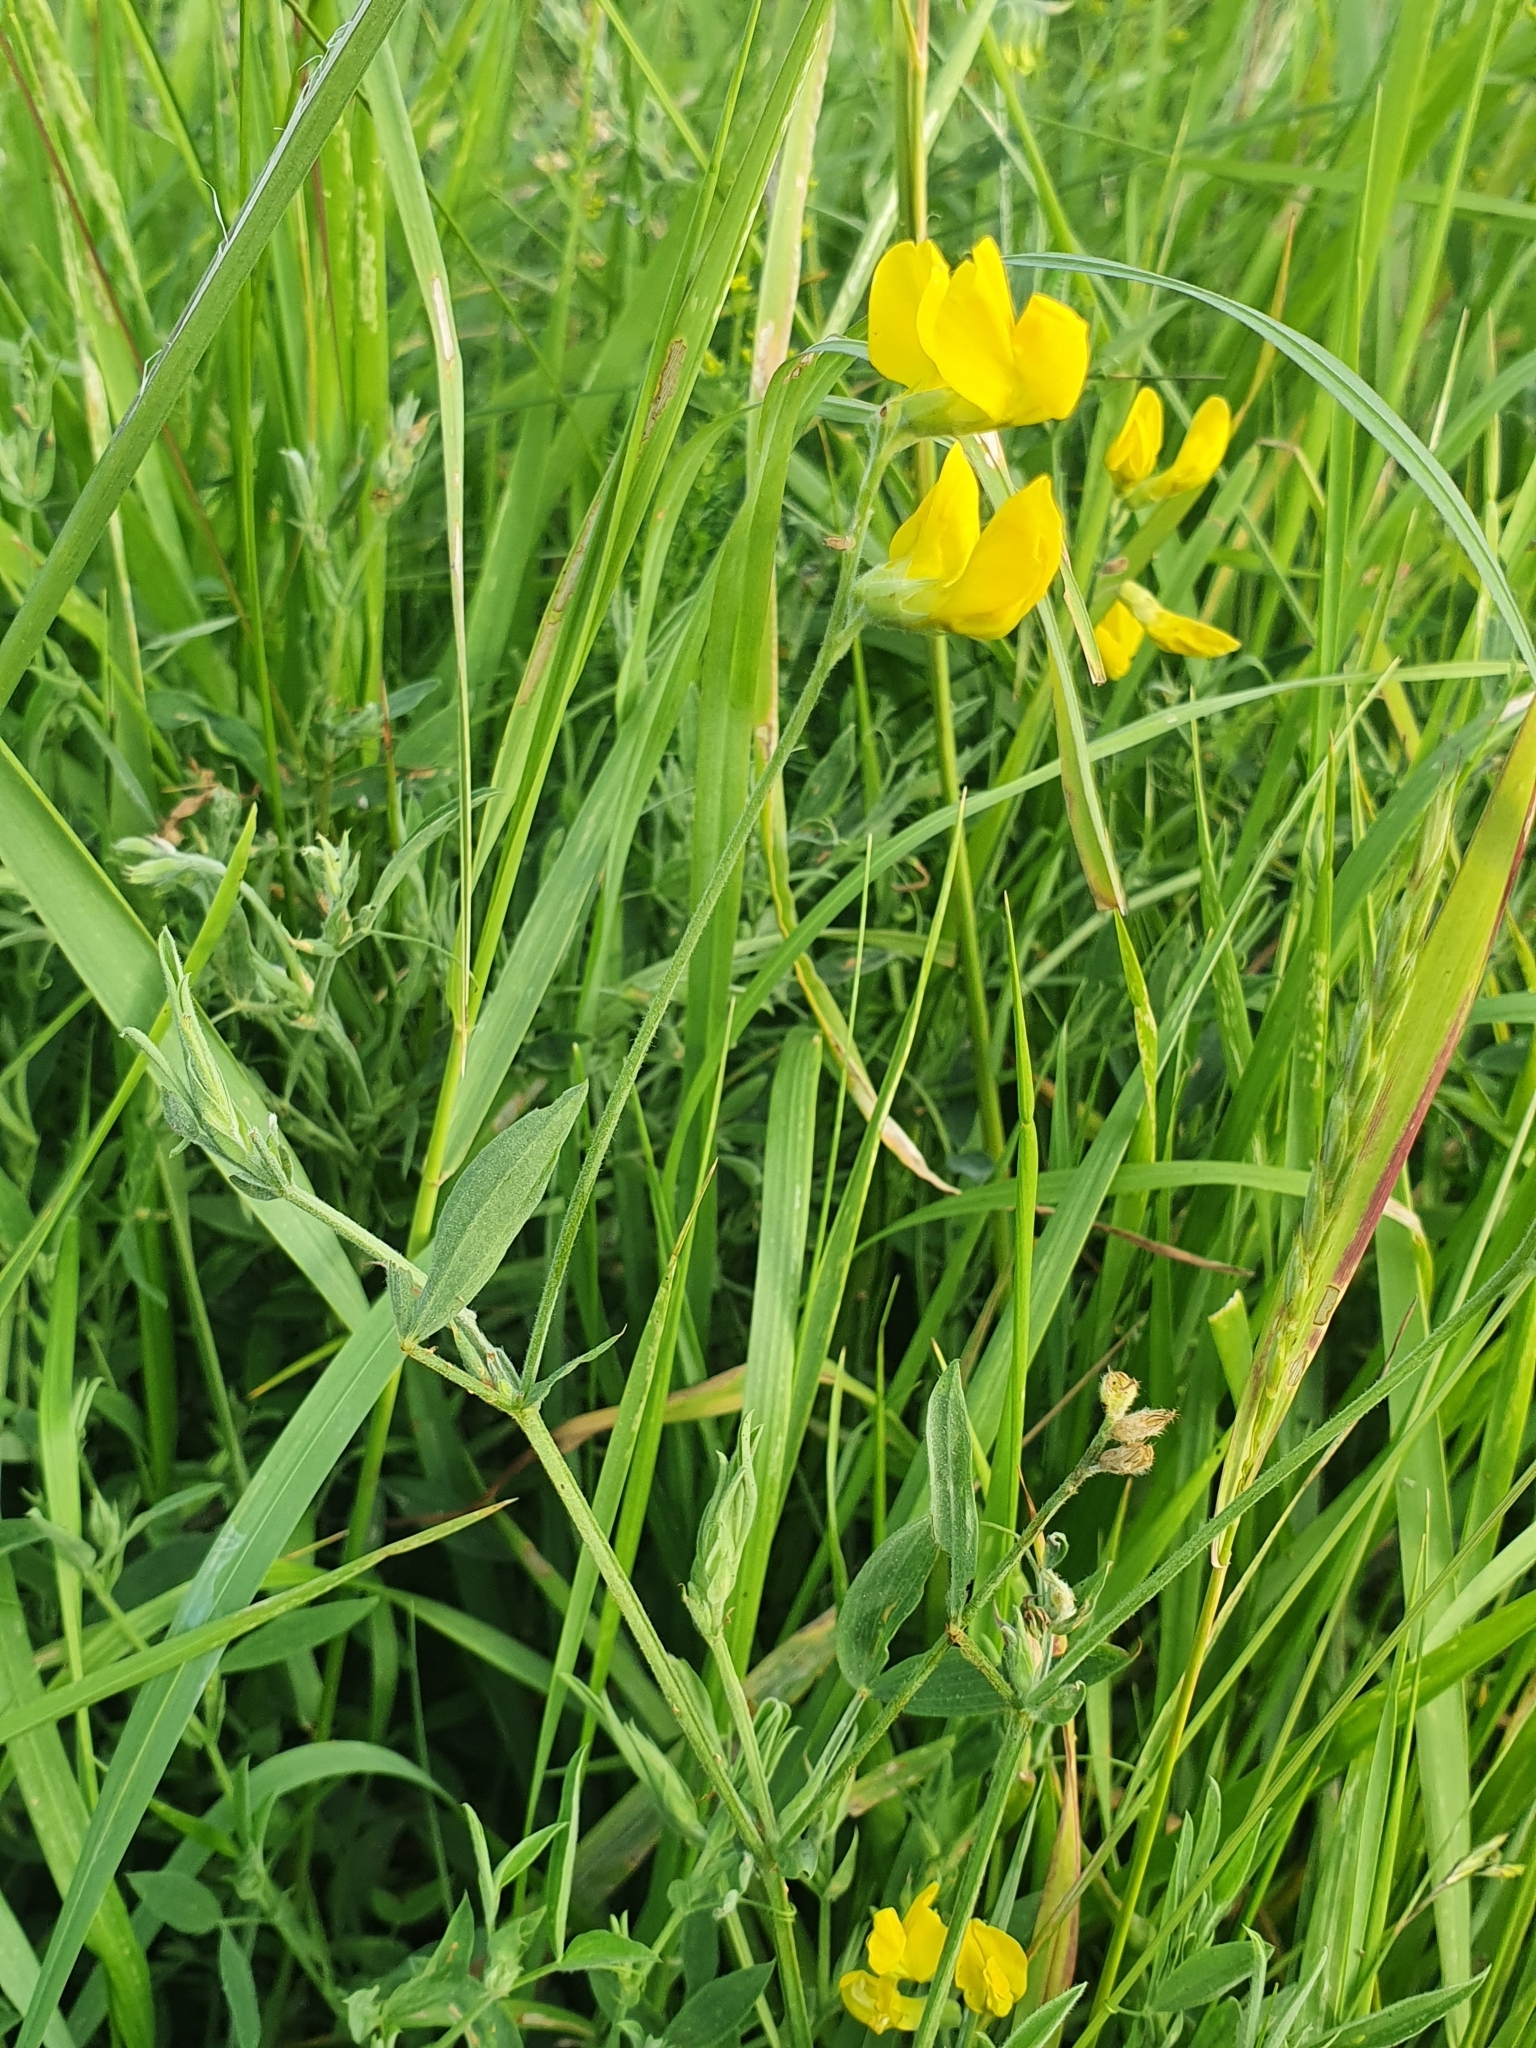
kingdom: Plantae
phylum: Tracheophyta
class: Magnoliopsida
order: Fabales
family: Fabaceae
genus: Lathyrus
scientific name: Lathyrus pratensis
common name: Meadow vetchling
